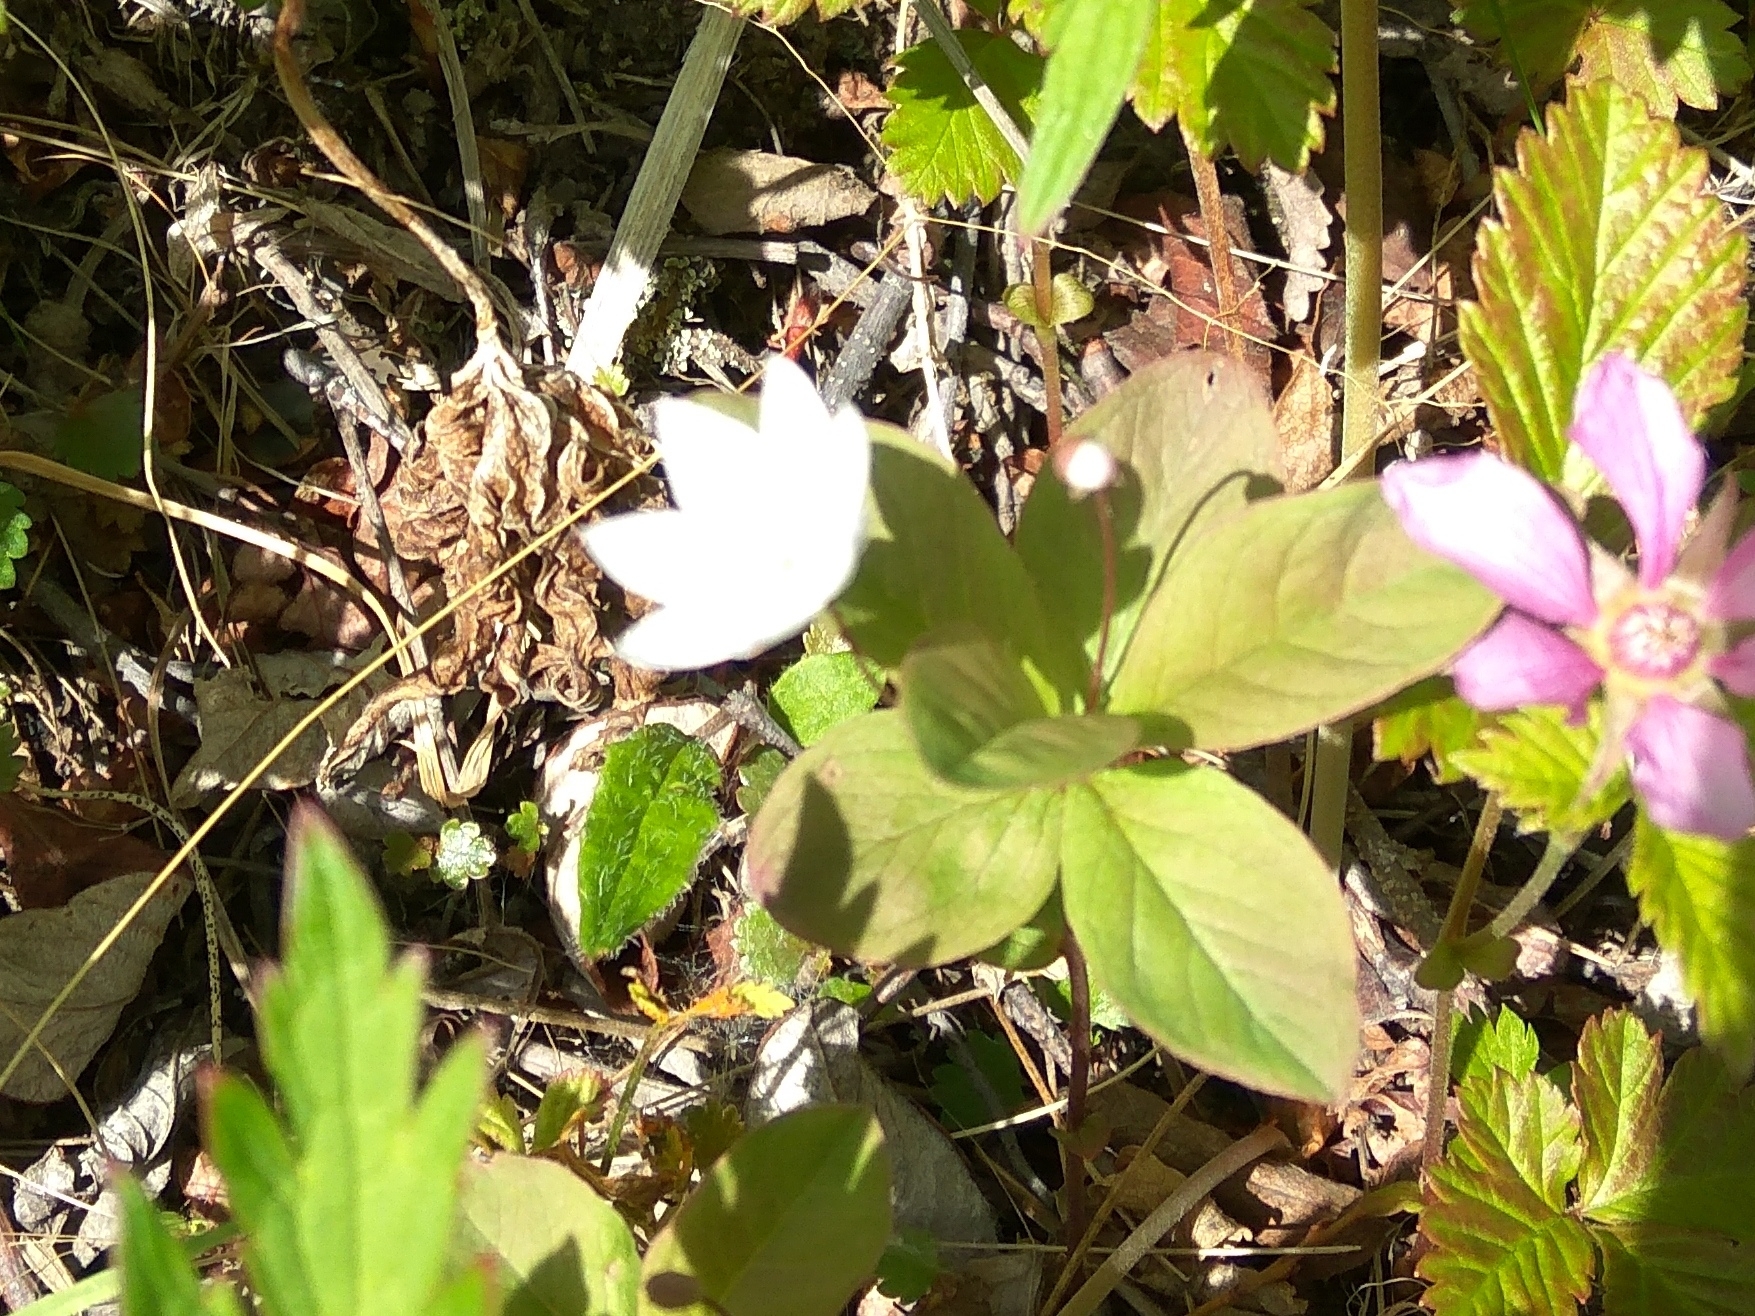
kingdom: Plantae
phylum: Tracheophyta
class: Magnoliopsida
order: Ericales
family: Primulaceae
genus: Lysimachia
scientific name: Lysimachia europaea
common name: Arctic starflower
